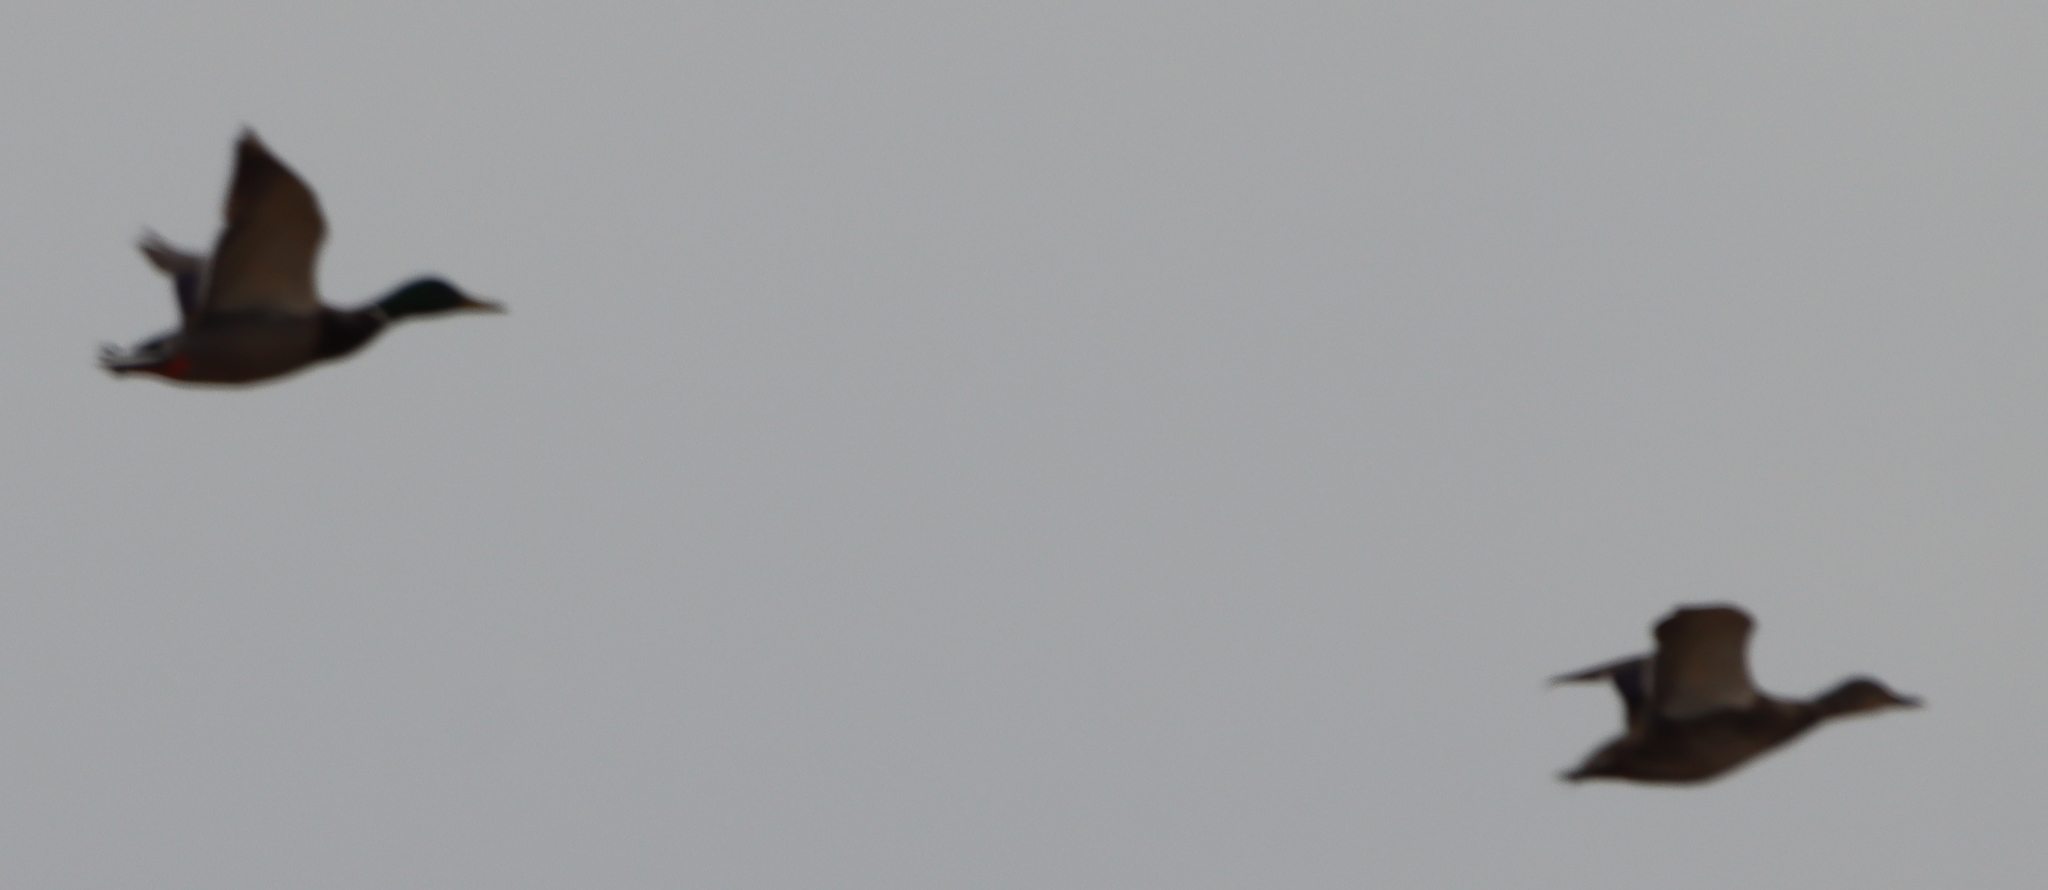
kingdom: Animalia
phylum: Chordata
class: Aves
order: Anseriformes
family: Anatidae
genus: Anas
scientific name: Anas platyrhynchos
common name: Mallard
